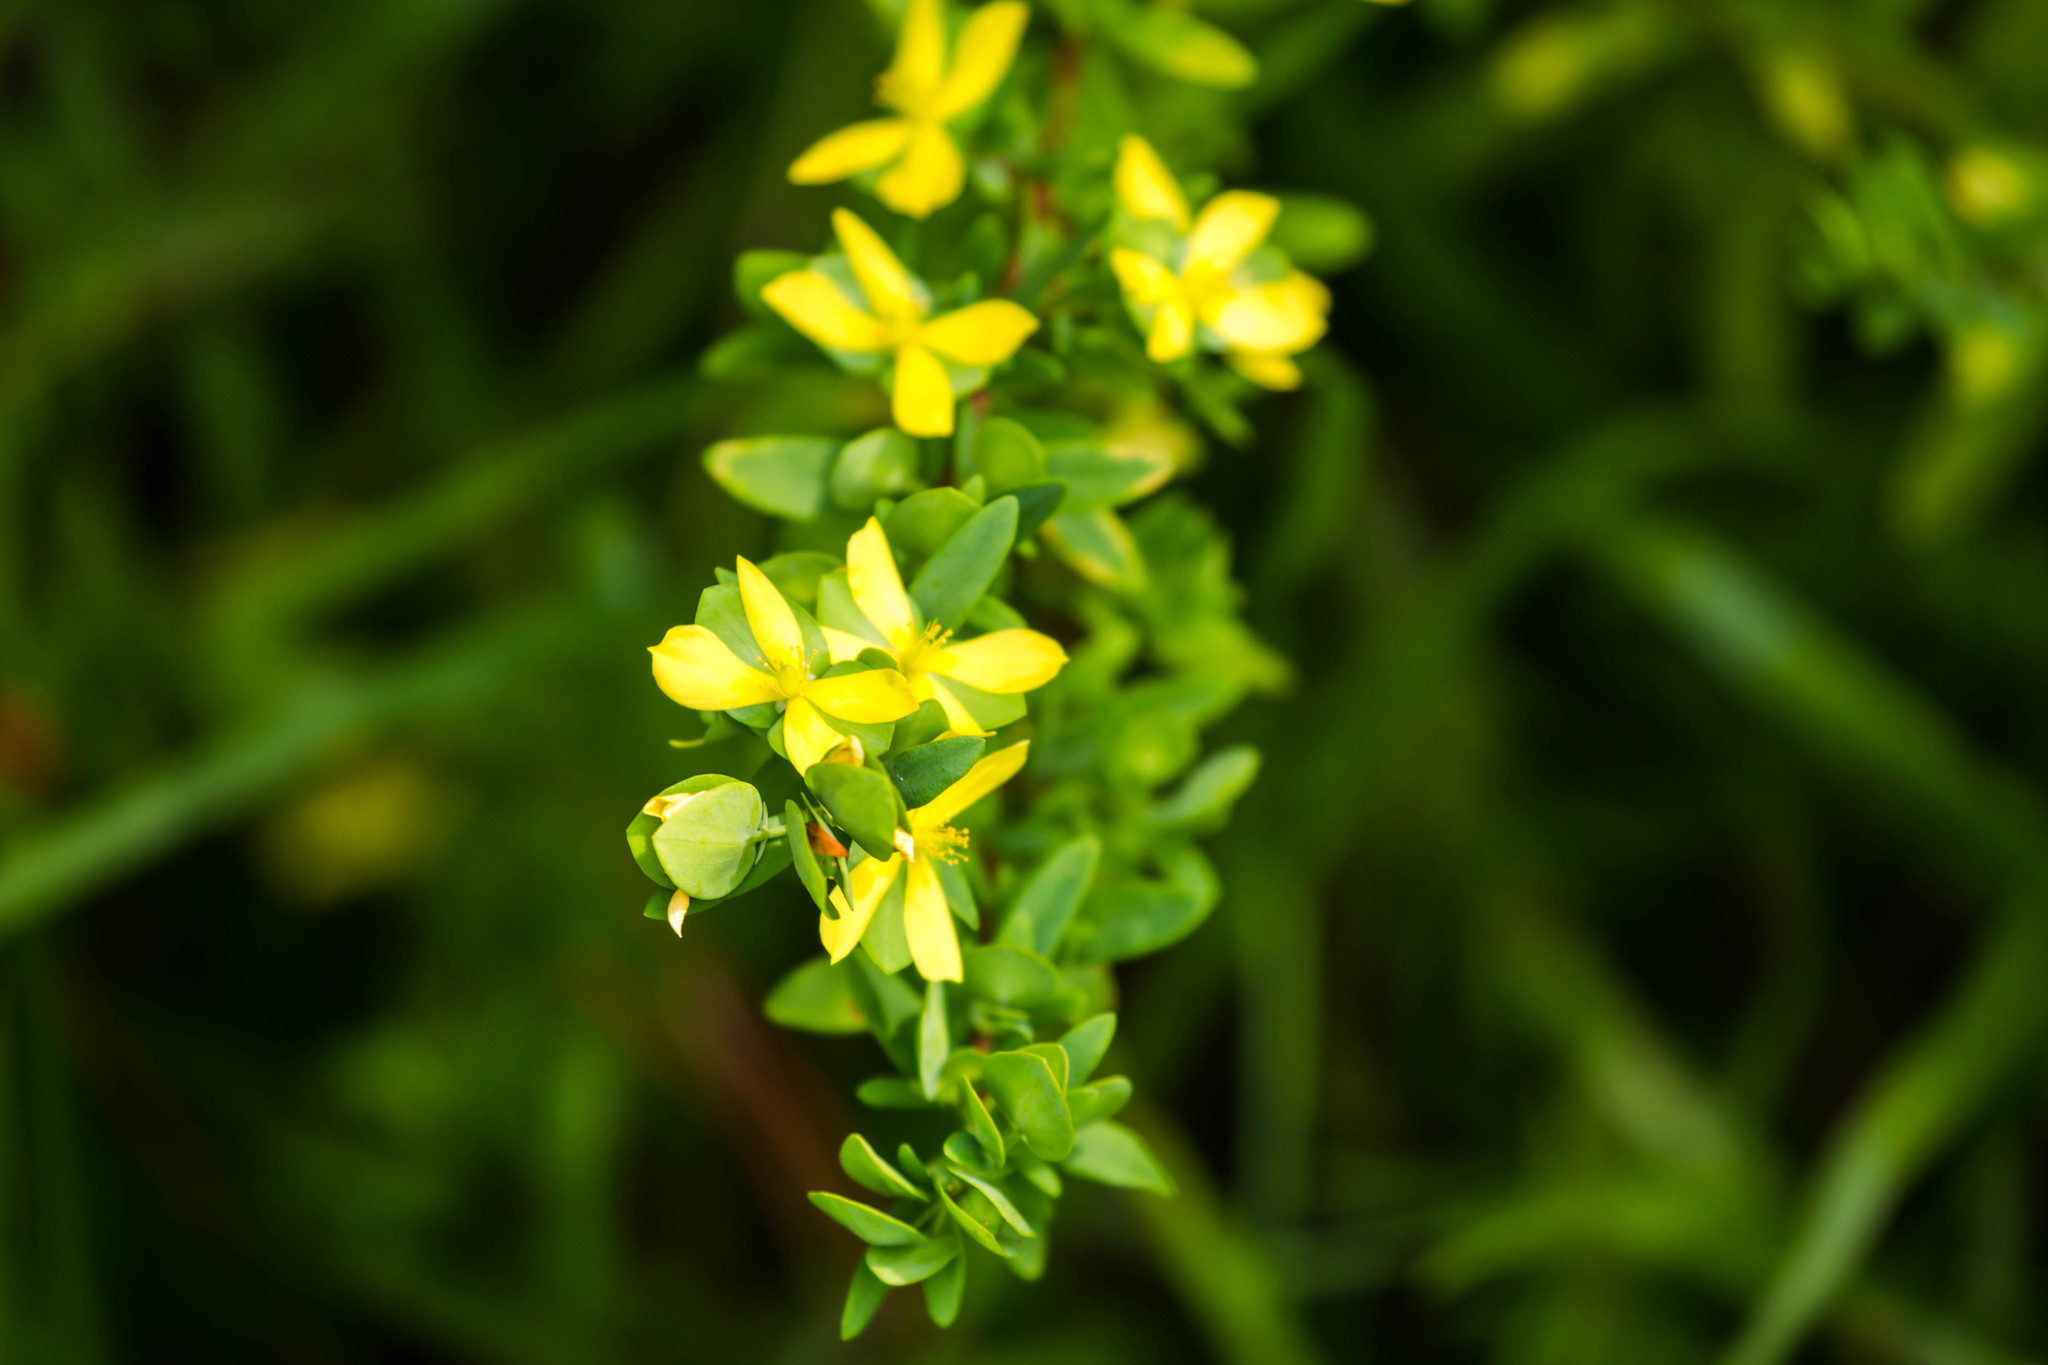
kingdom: Plantae
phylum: Tracheophyta
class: Magnoliopsida
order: Malpighiales
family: Hypericaceae
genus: Hypericum
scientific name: Hypericum hypericoides
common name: St. andrew's cross
